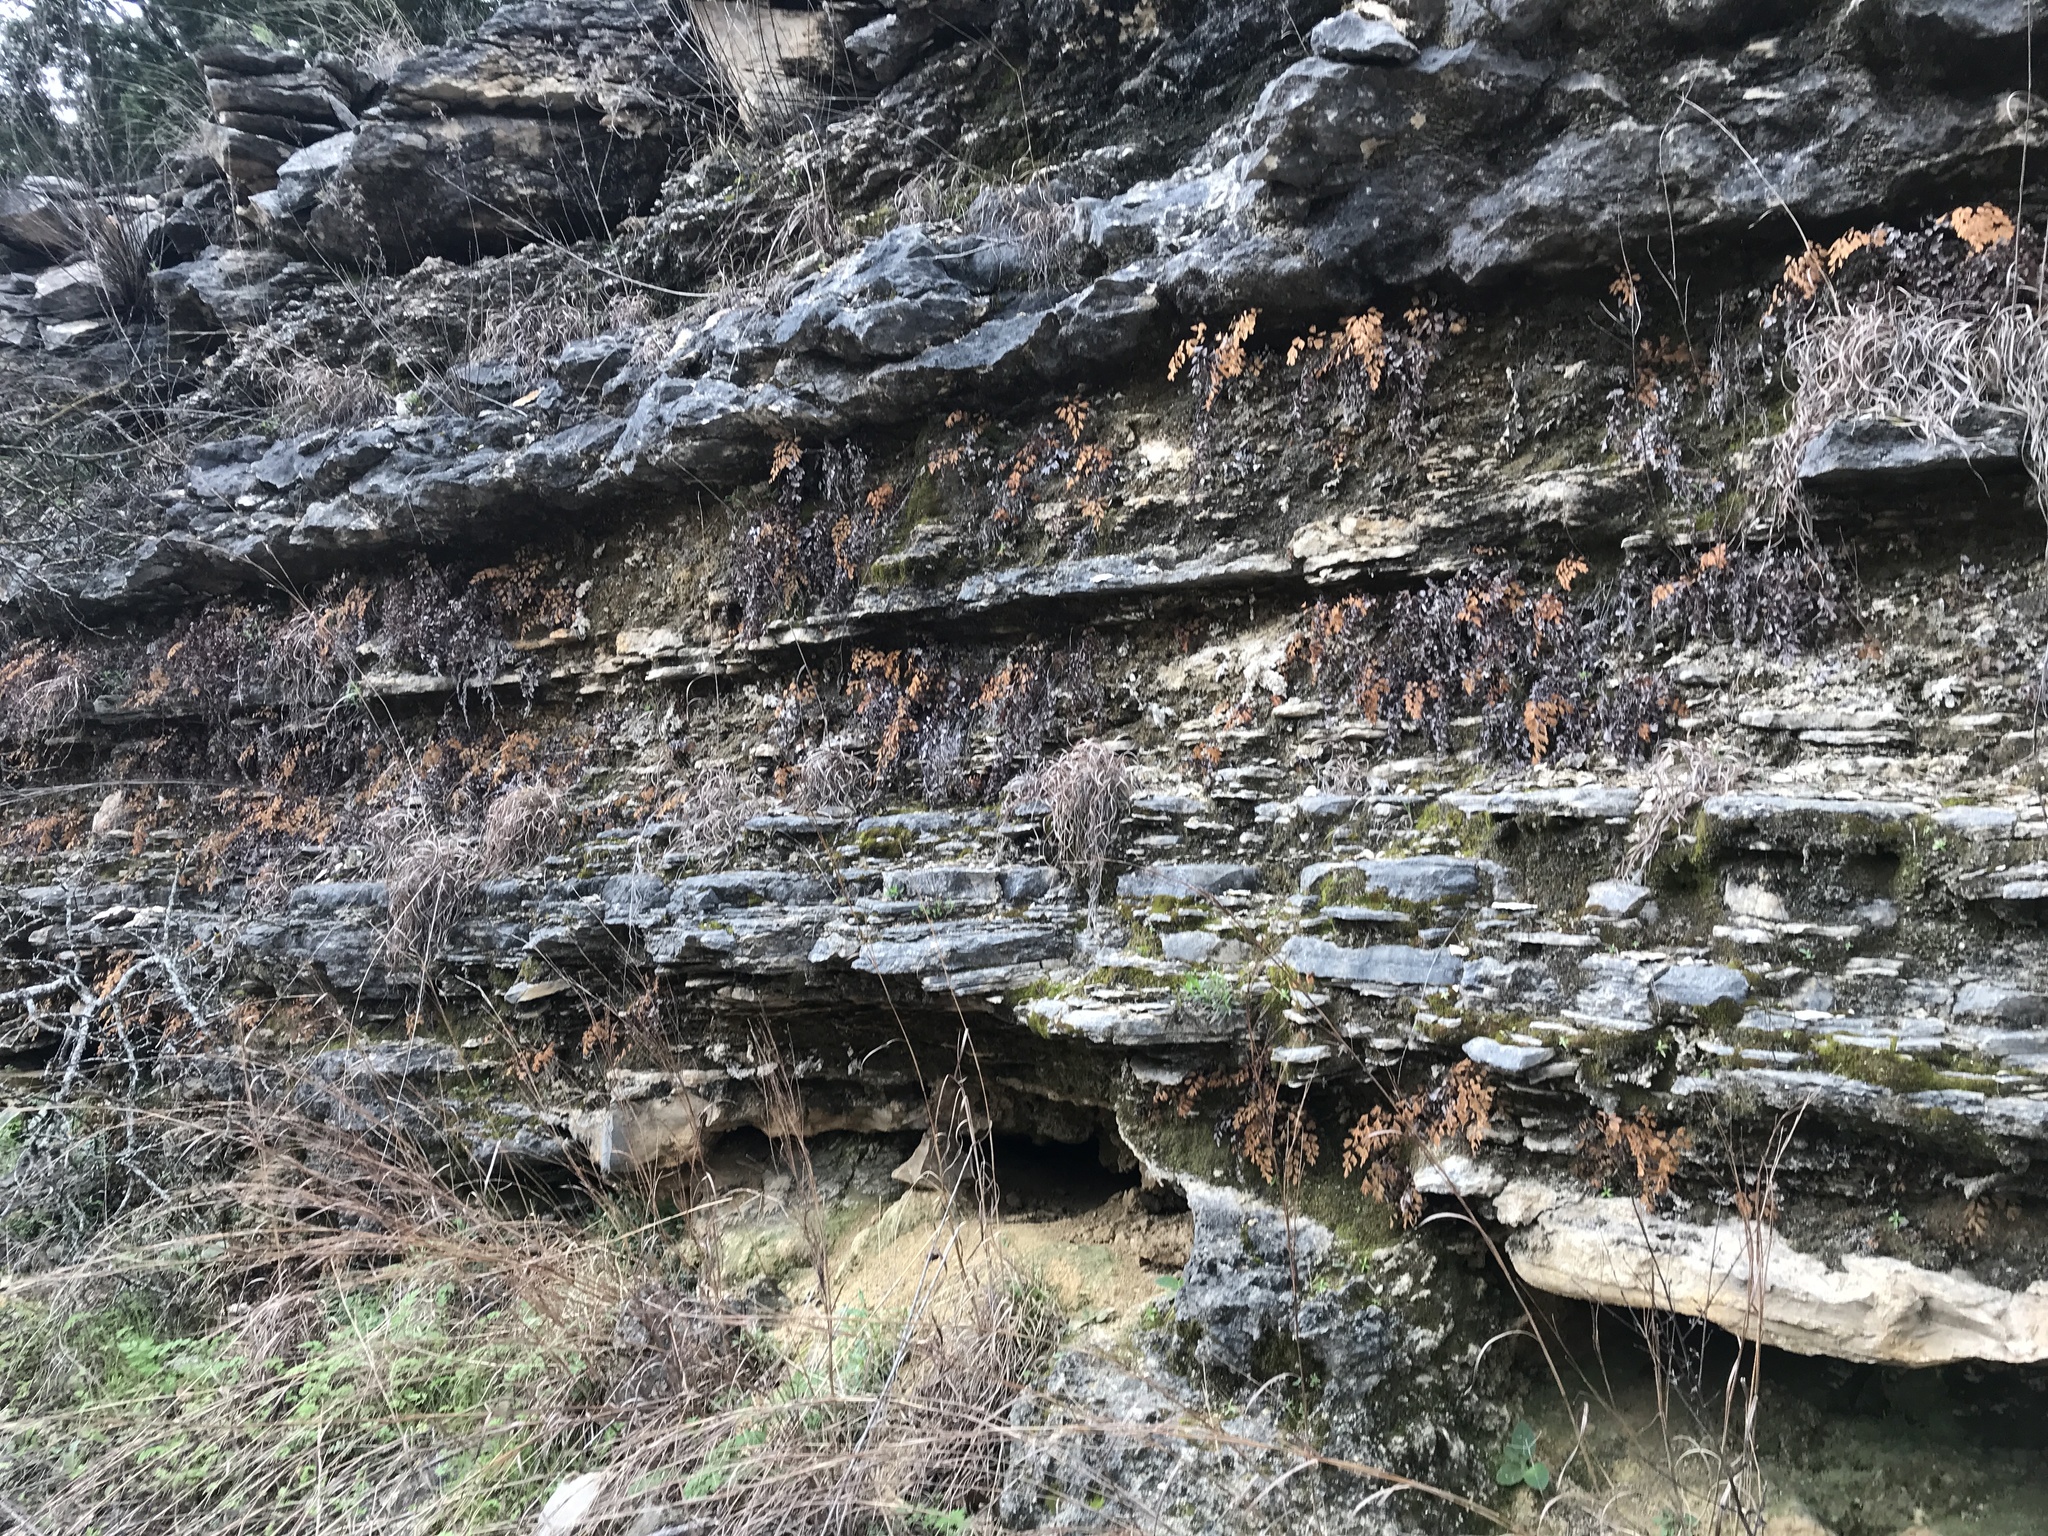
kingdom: Plantae
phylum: Tracheophyta
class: Polypodiopsida
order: Polypodiales
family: Pteridaceae
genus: Adiantum
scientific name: Adiantum capillus-veneris
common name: Maidenhair fern
